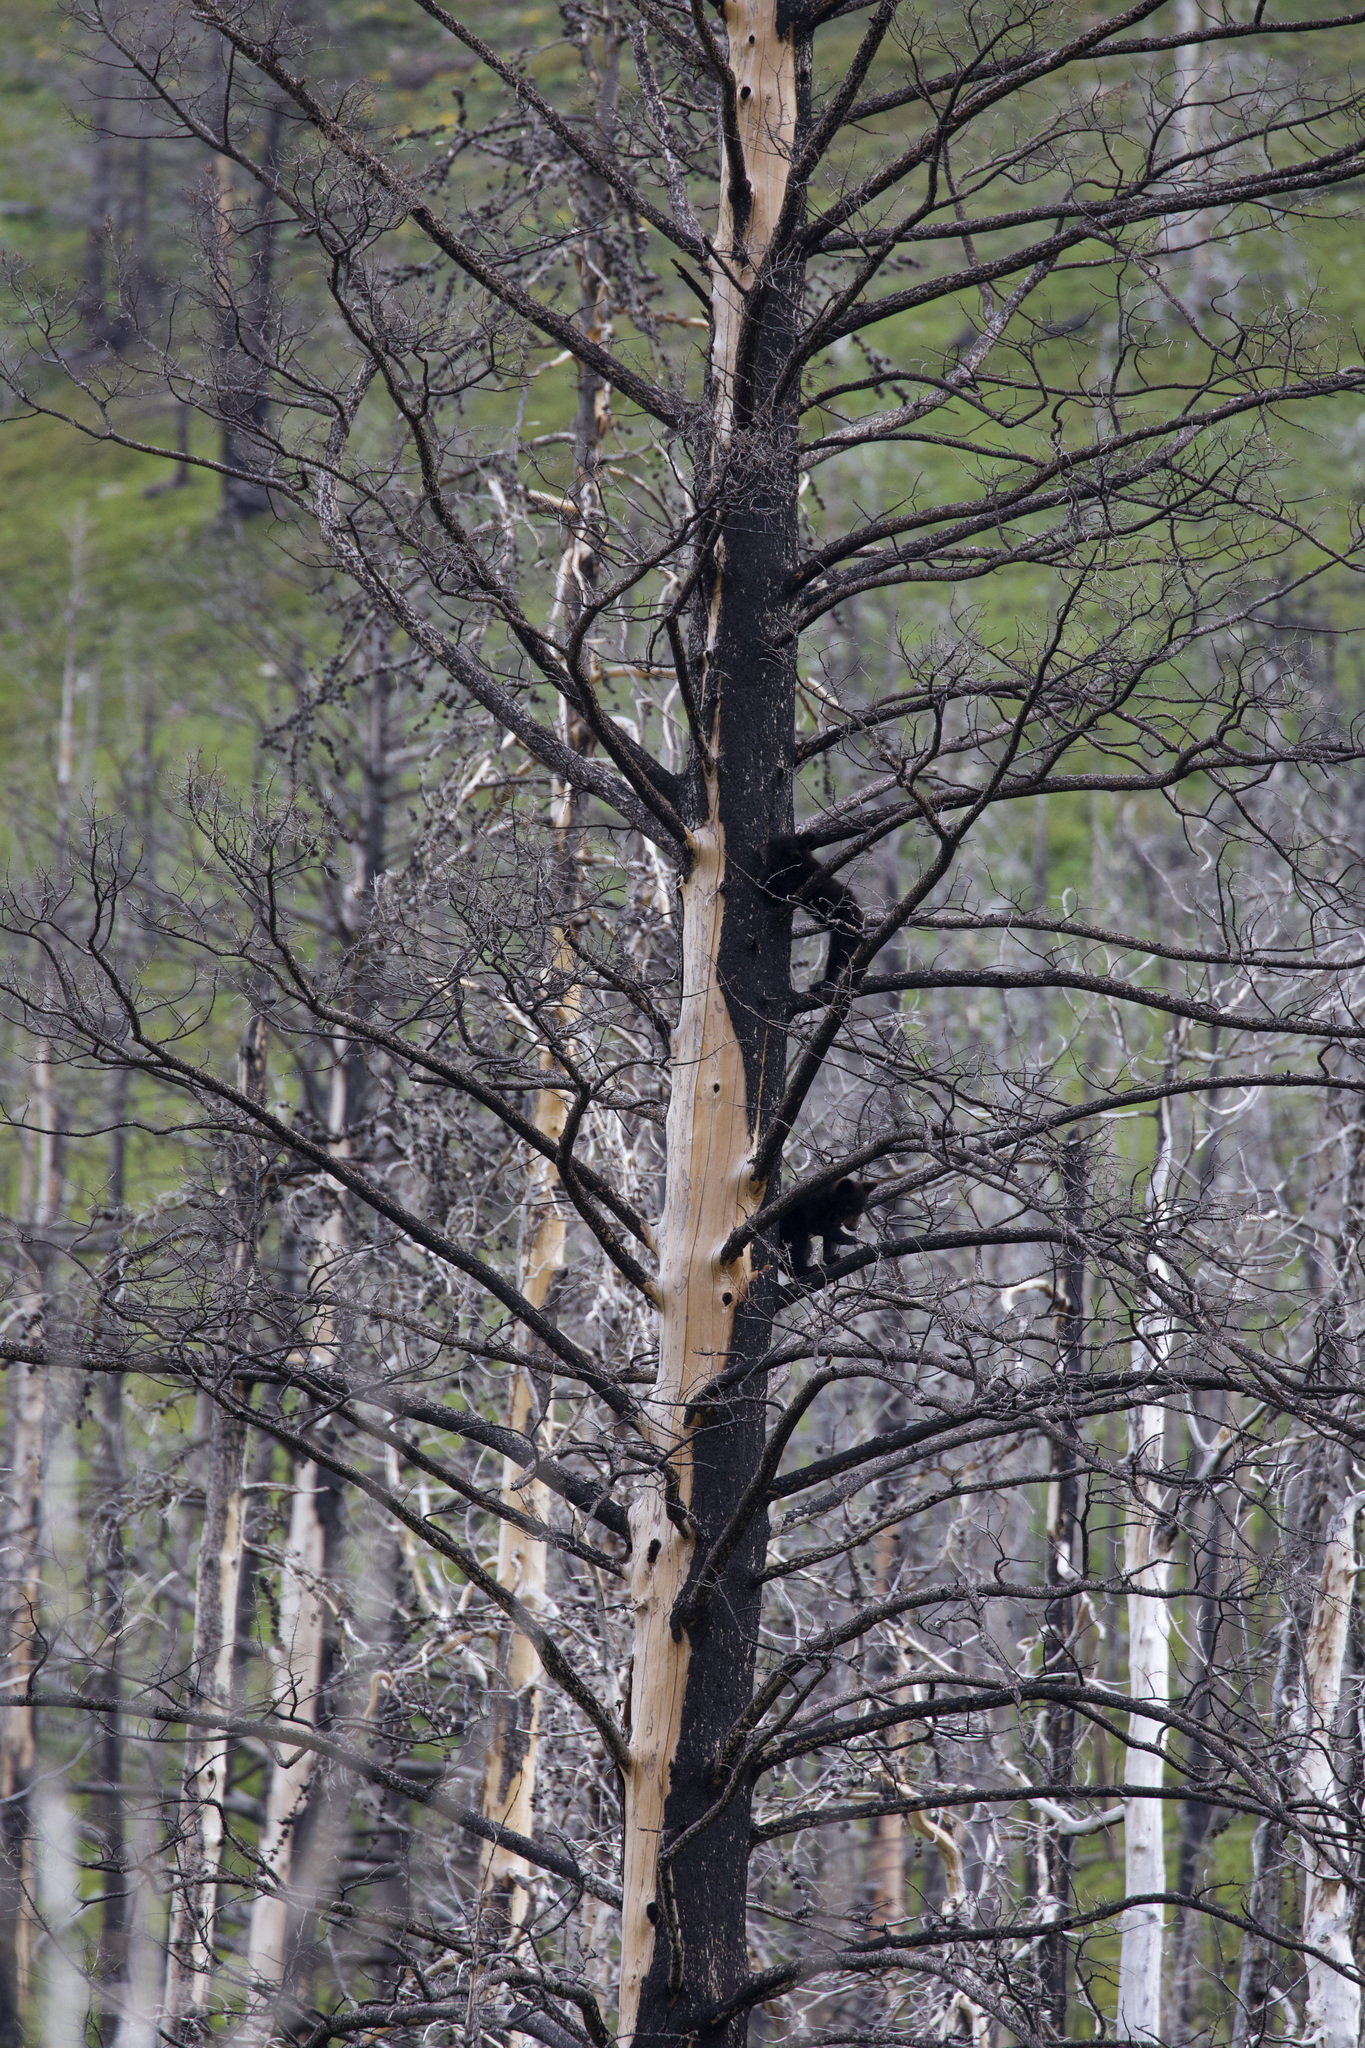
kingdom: Animalia
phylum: Chordata
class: Mammalia
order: Carnivora
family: Ursidae
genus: Ursus
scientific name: Ursus americanus
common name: American black bear
